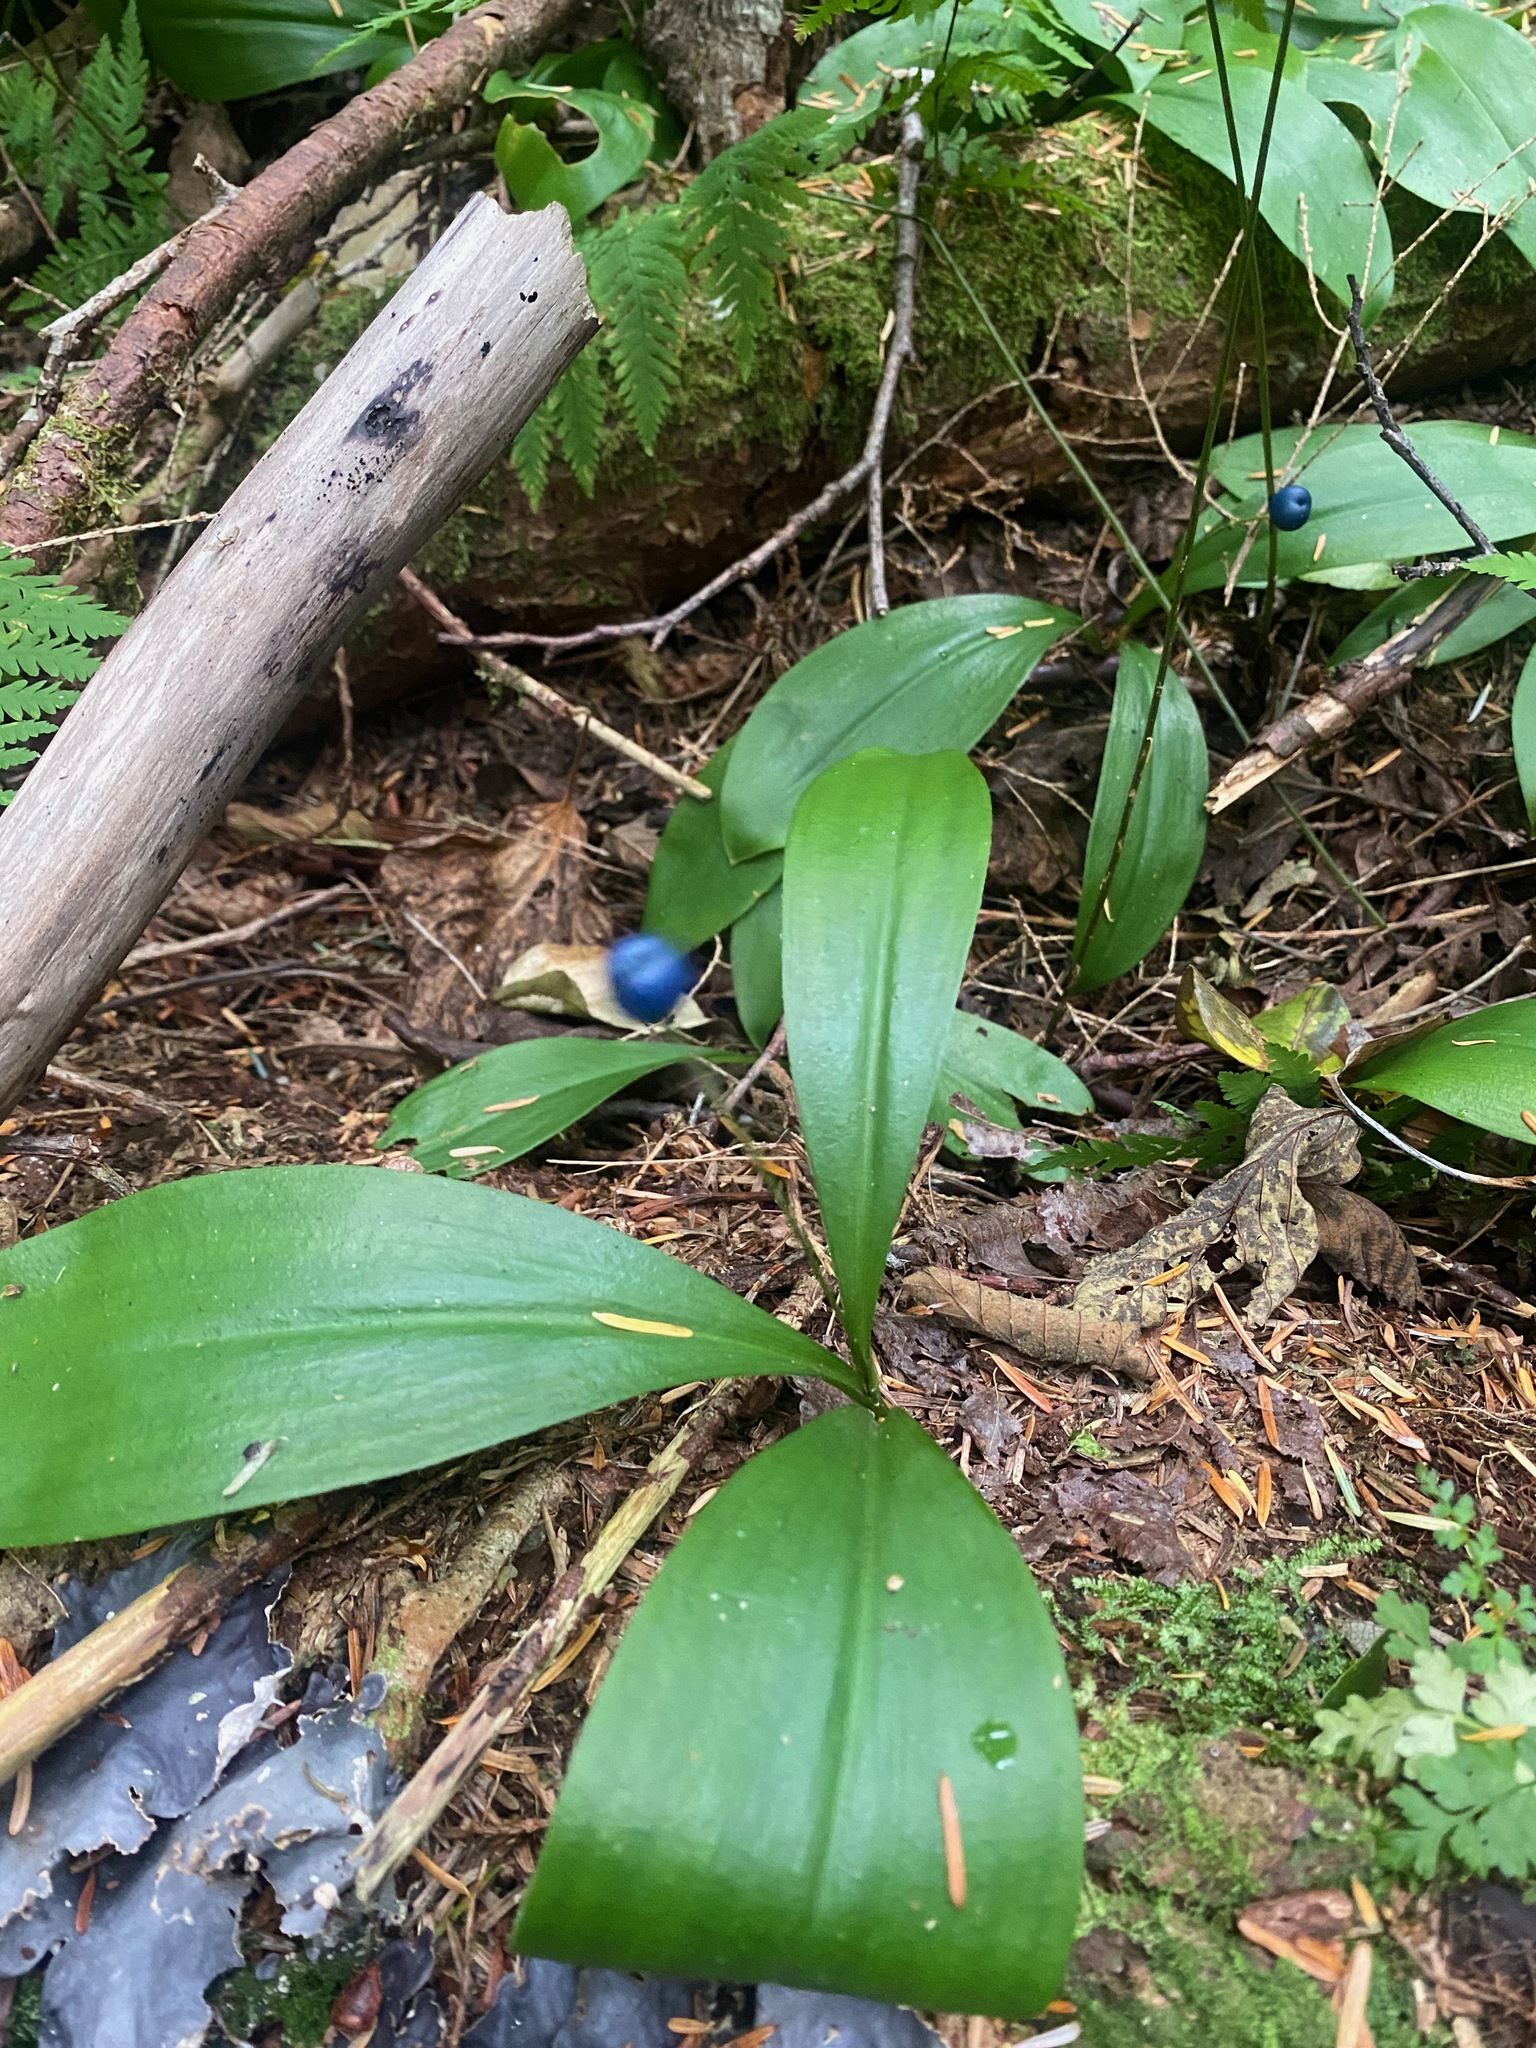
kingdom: Plantae
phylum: Tracheophyta
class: Liliopsida
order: Liliales
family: Liliaceae
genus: Clintonia
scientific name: Clintonia uniflora
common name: Queen's cup
